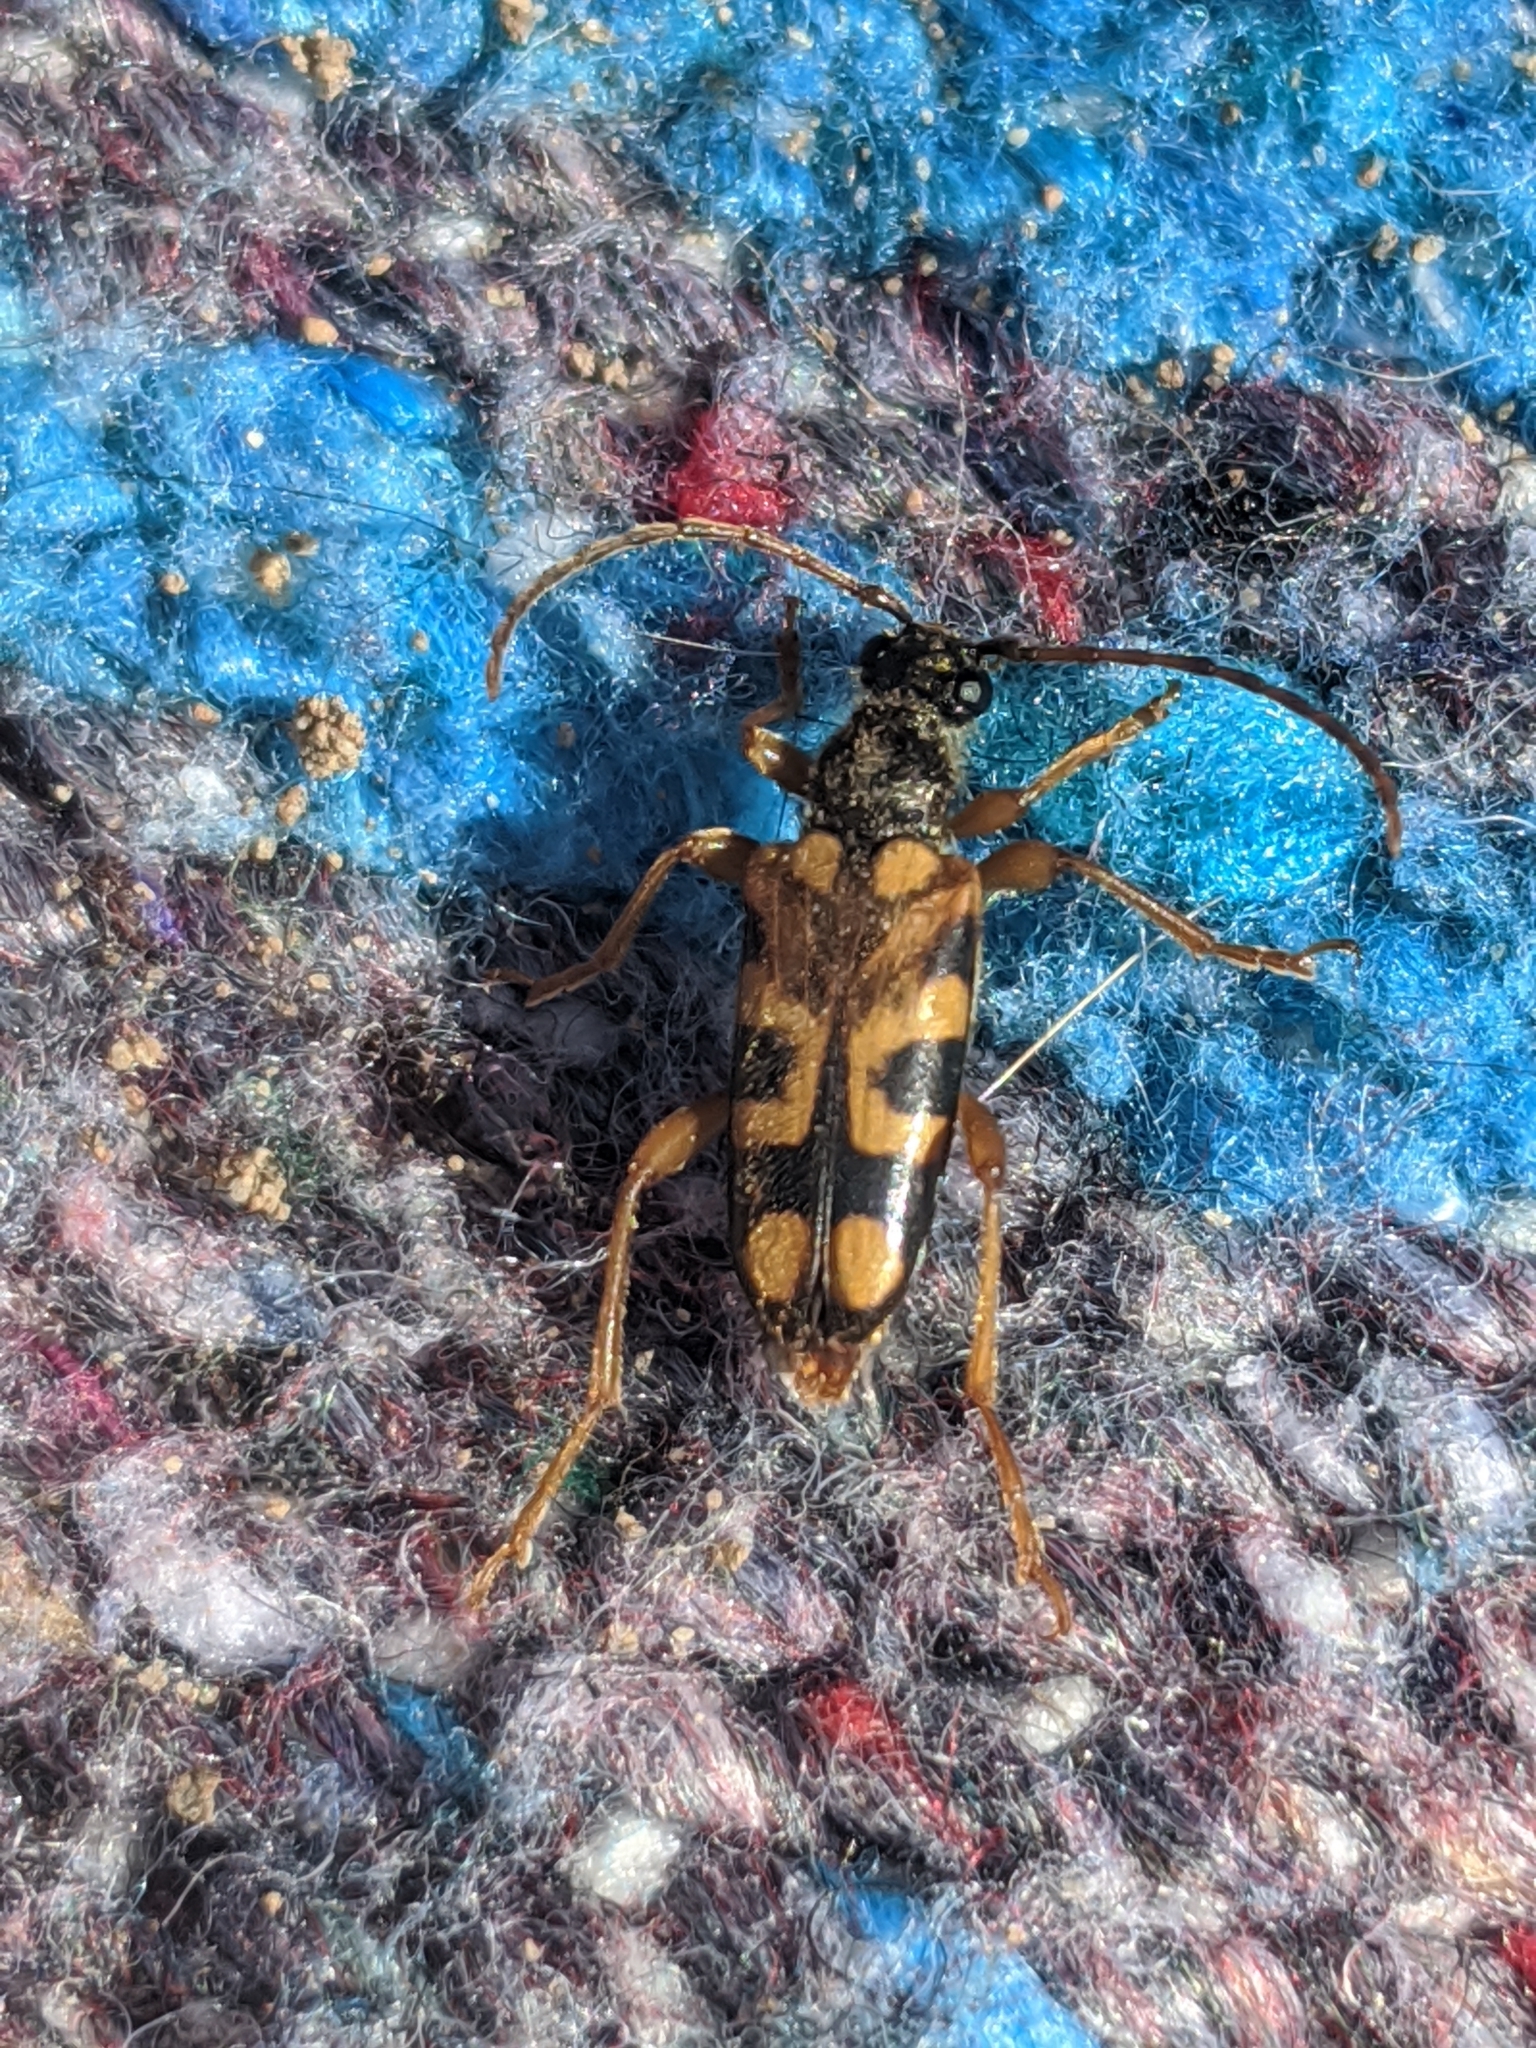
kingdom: Animalia
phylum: Arthropoda
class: Insecta
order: Coleoptera
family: Cerambycidae
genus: Xestoleptura
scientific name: Xestoleptura crassipes
